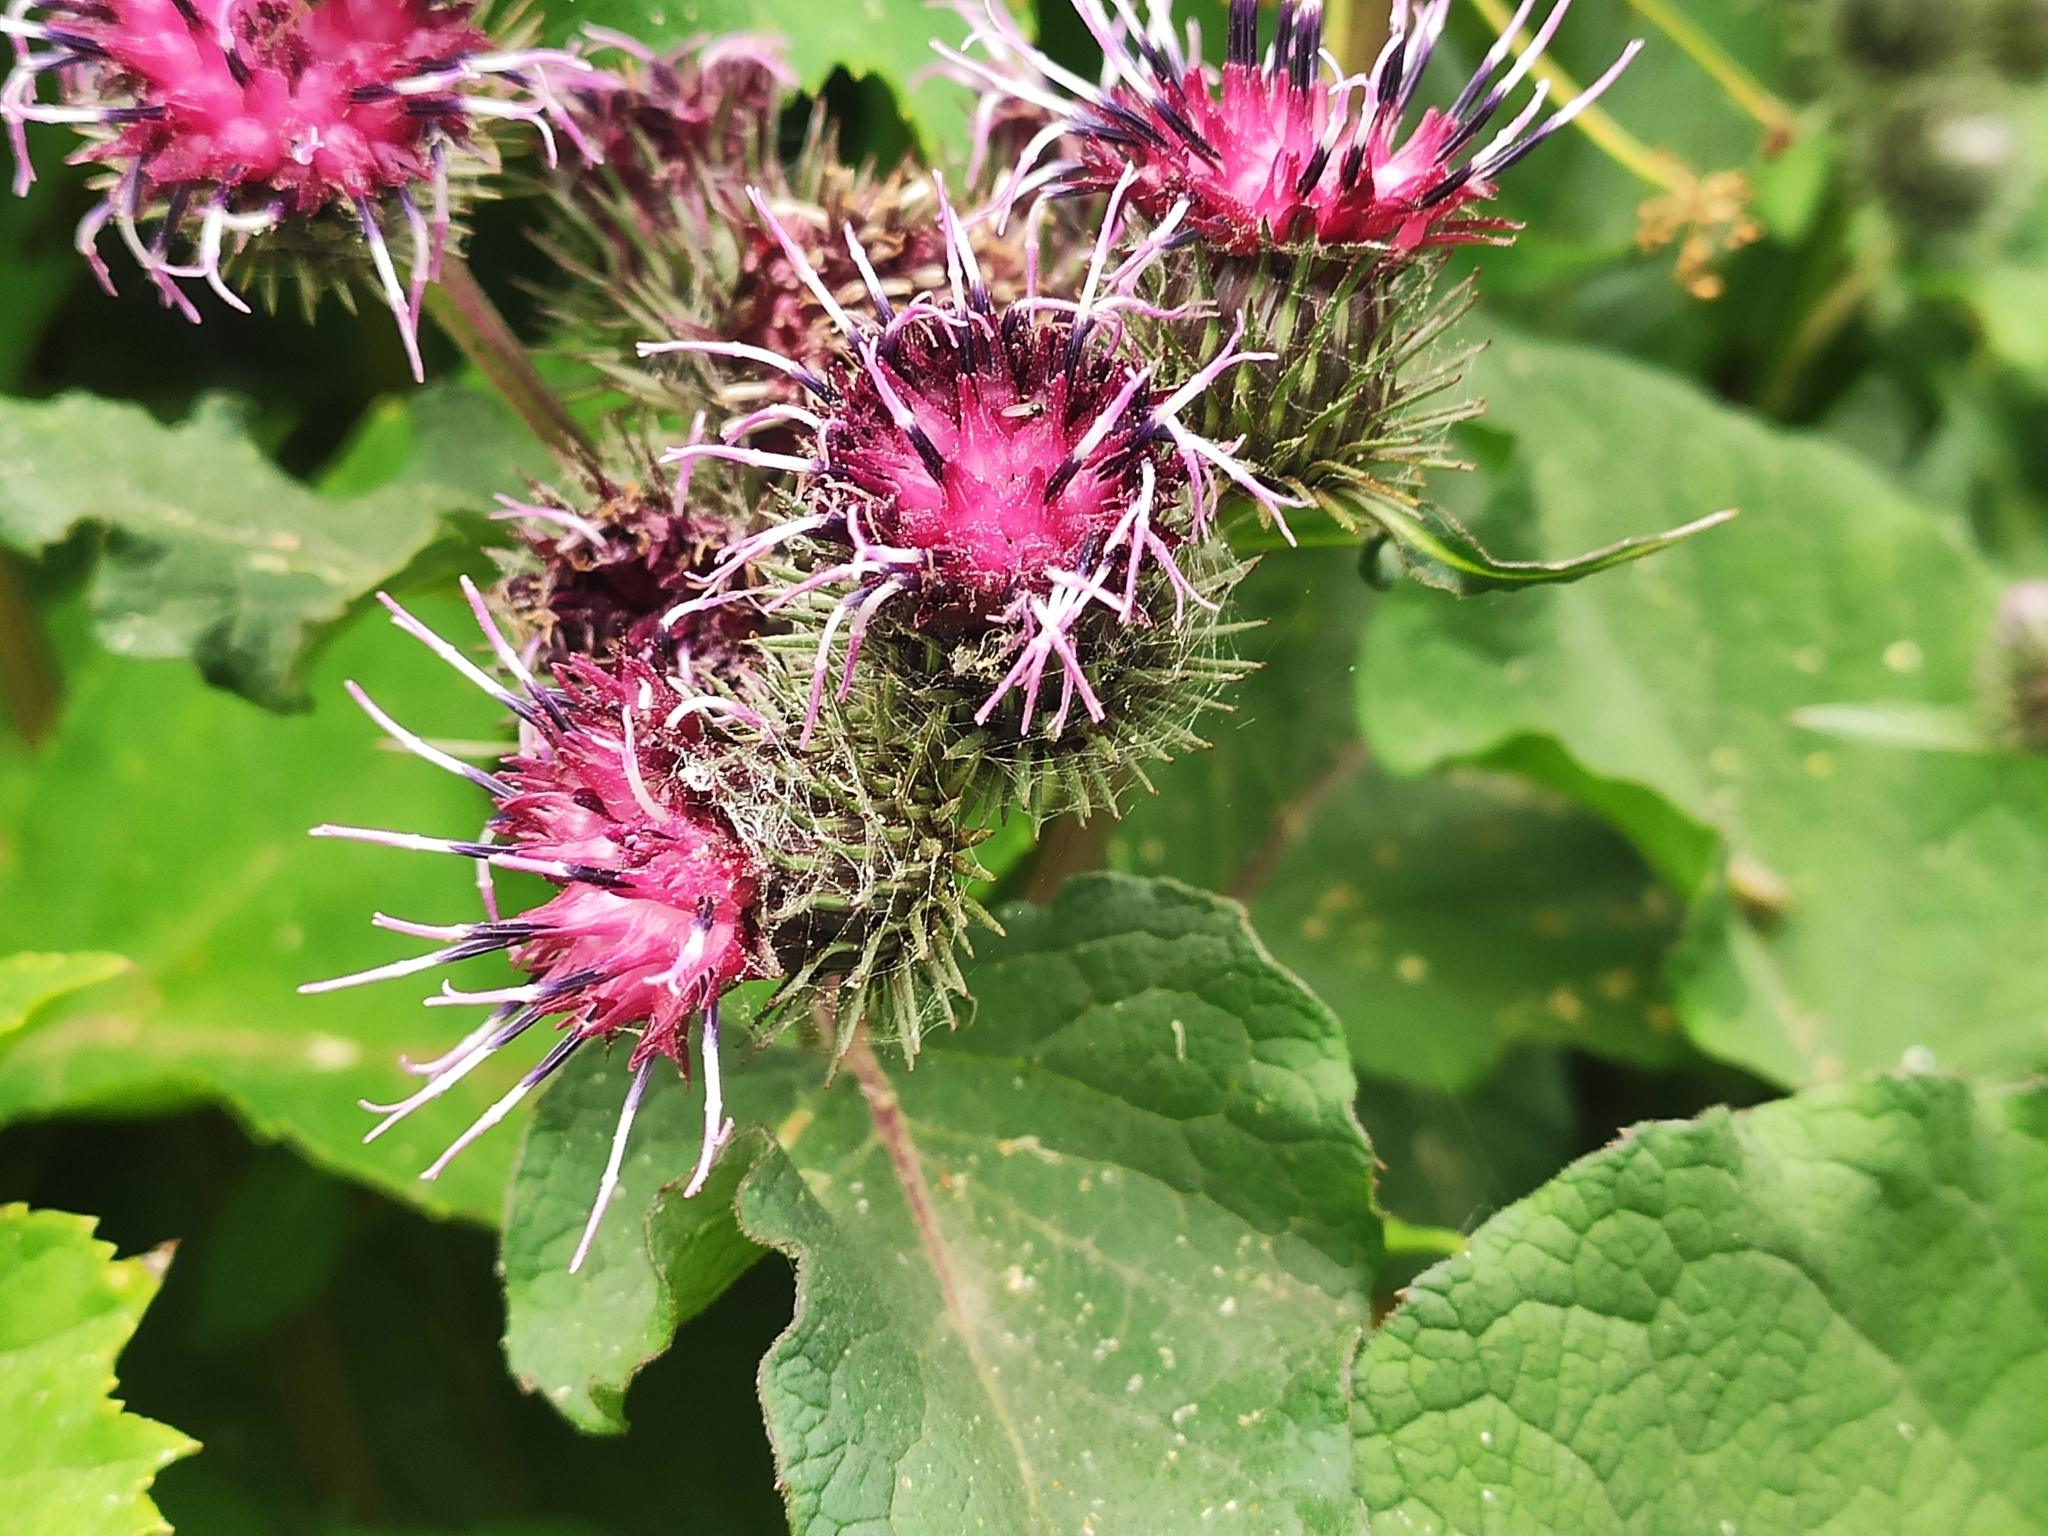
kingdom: Plantae
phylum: Tracheophyta
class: Magnoliopsida
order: Asterales
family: Asteraceae
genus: Arctium
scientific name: Arctium tomentosum
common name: Woolly burdock
